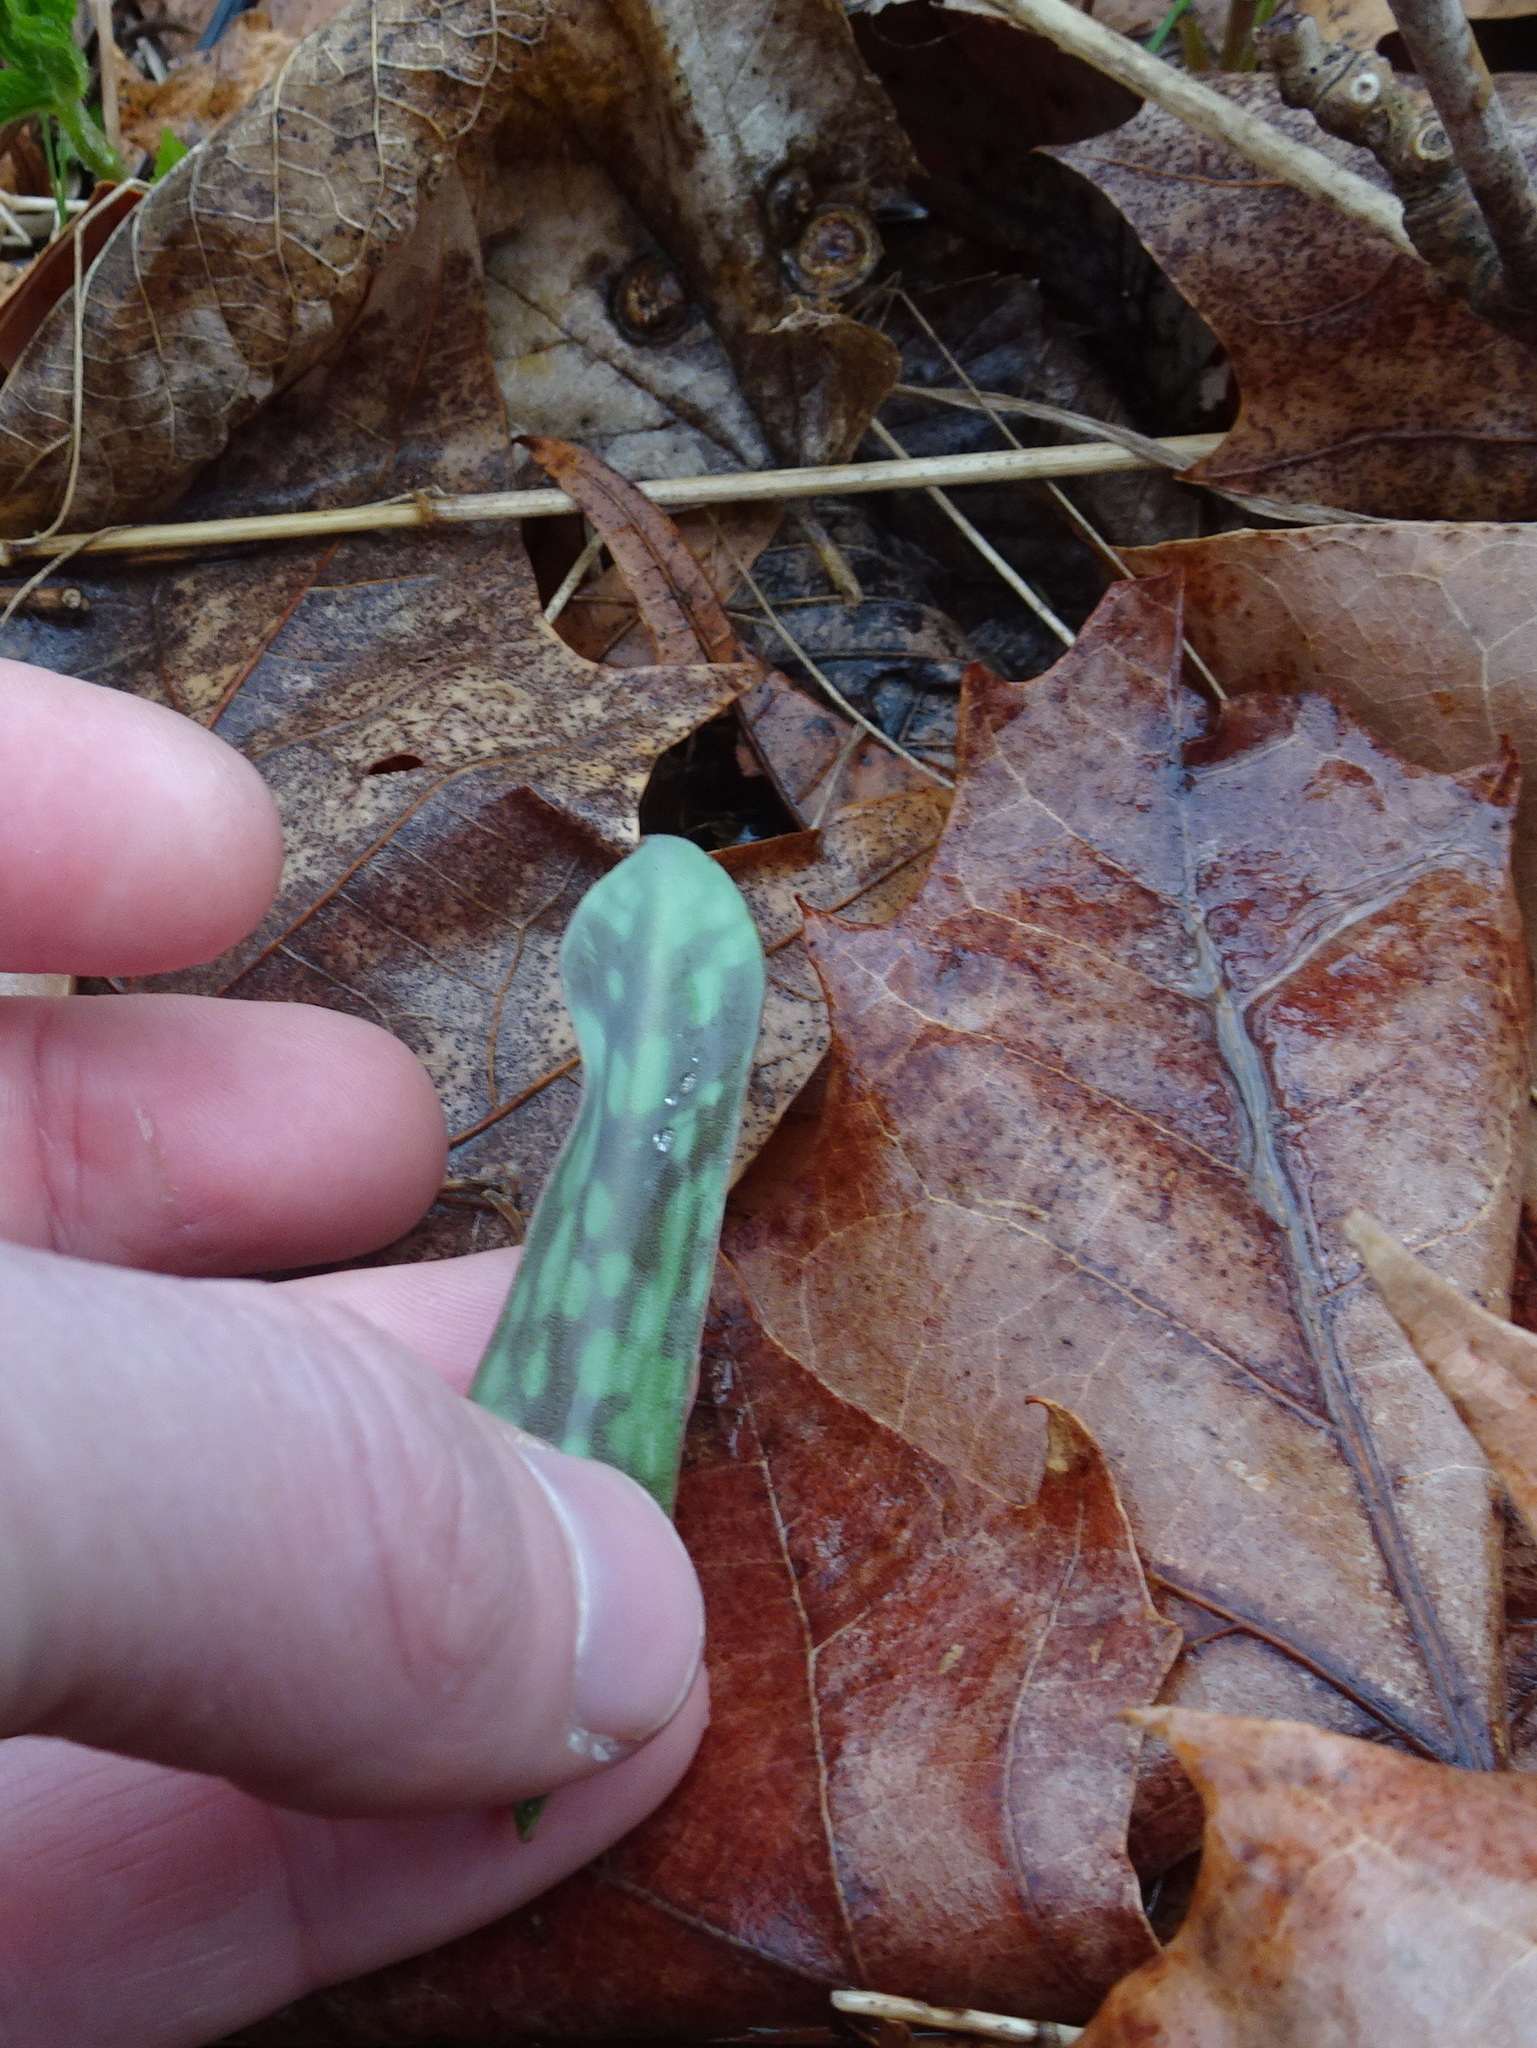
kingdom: Plantae
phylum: Tracheophyta
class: Liliopsida
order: Liliales
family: Liliaceae
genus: Erythronium
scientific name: Erythronium albidum
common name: White trout-lily
